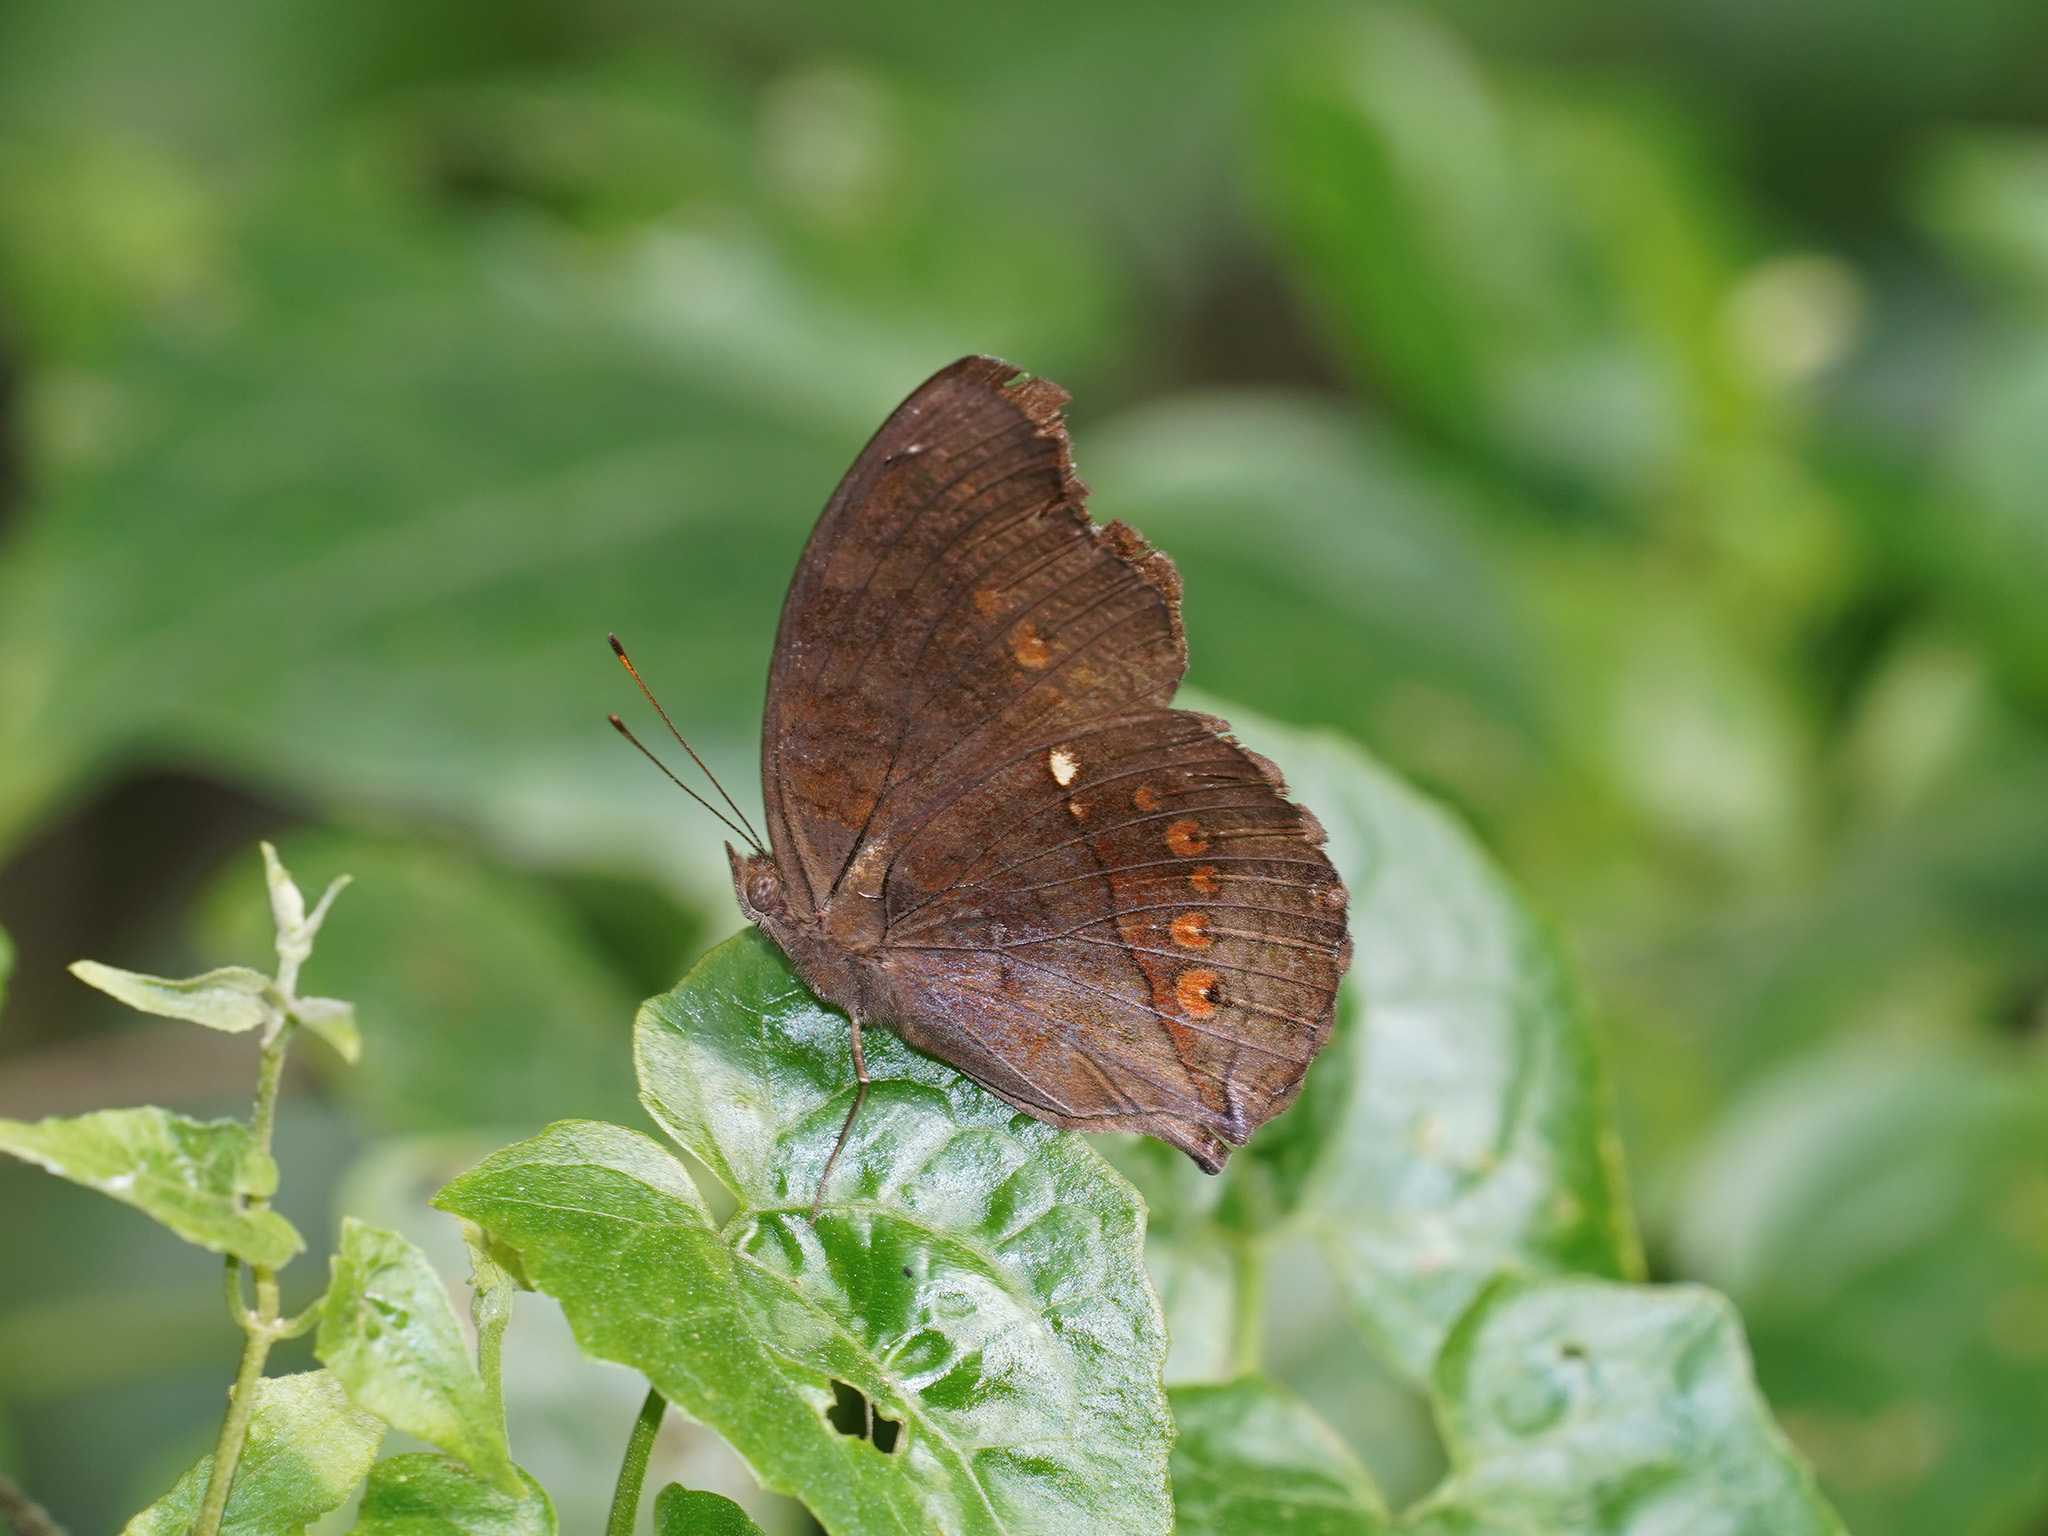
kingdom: Animalia
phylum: Arthropoda
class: Insecta
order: Lepidoptera
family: Nymphalidae
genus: Junonia
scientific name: Junonia hedonia
